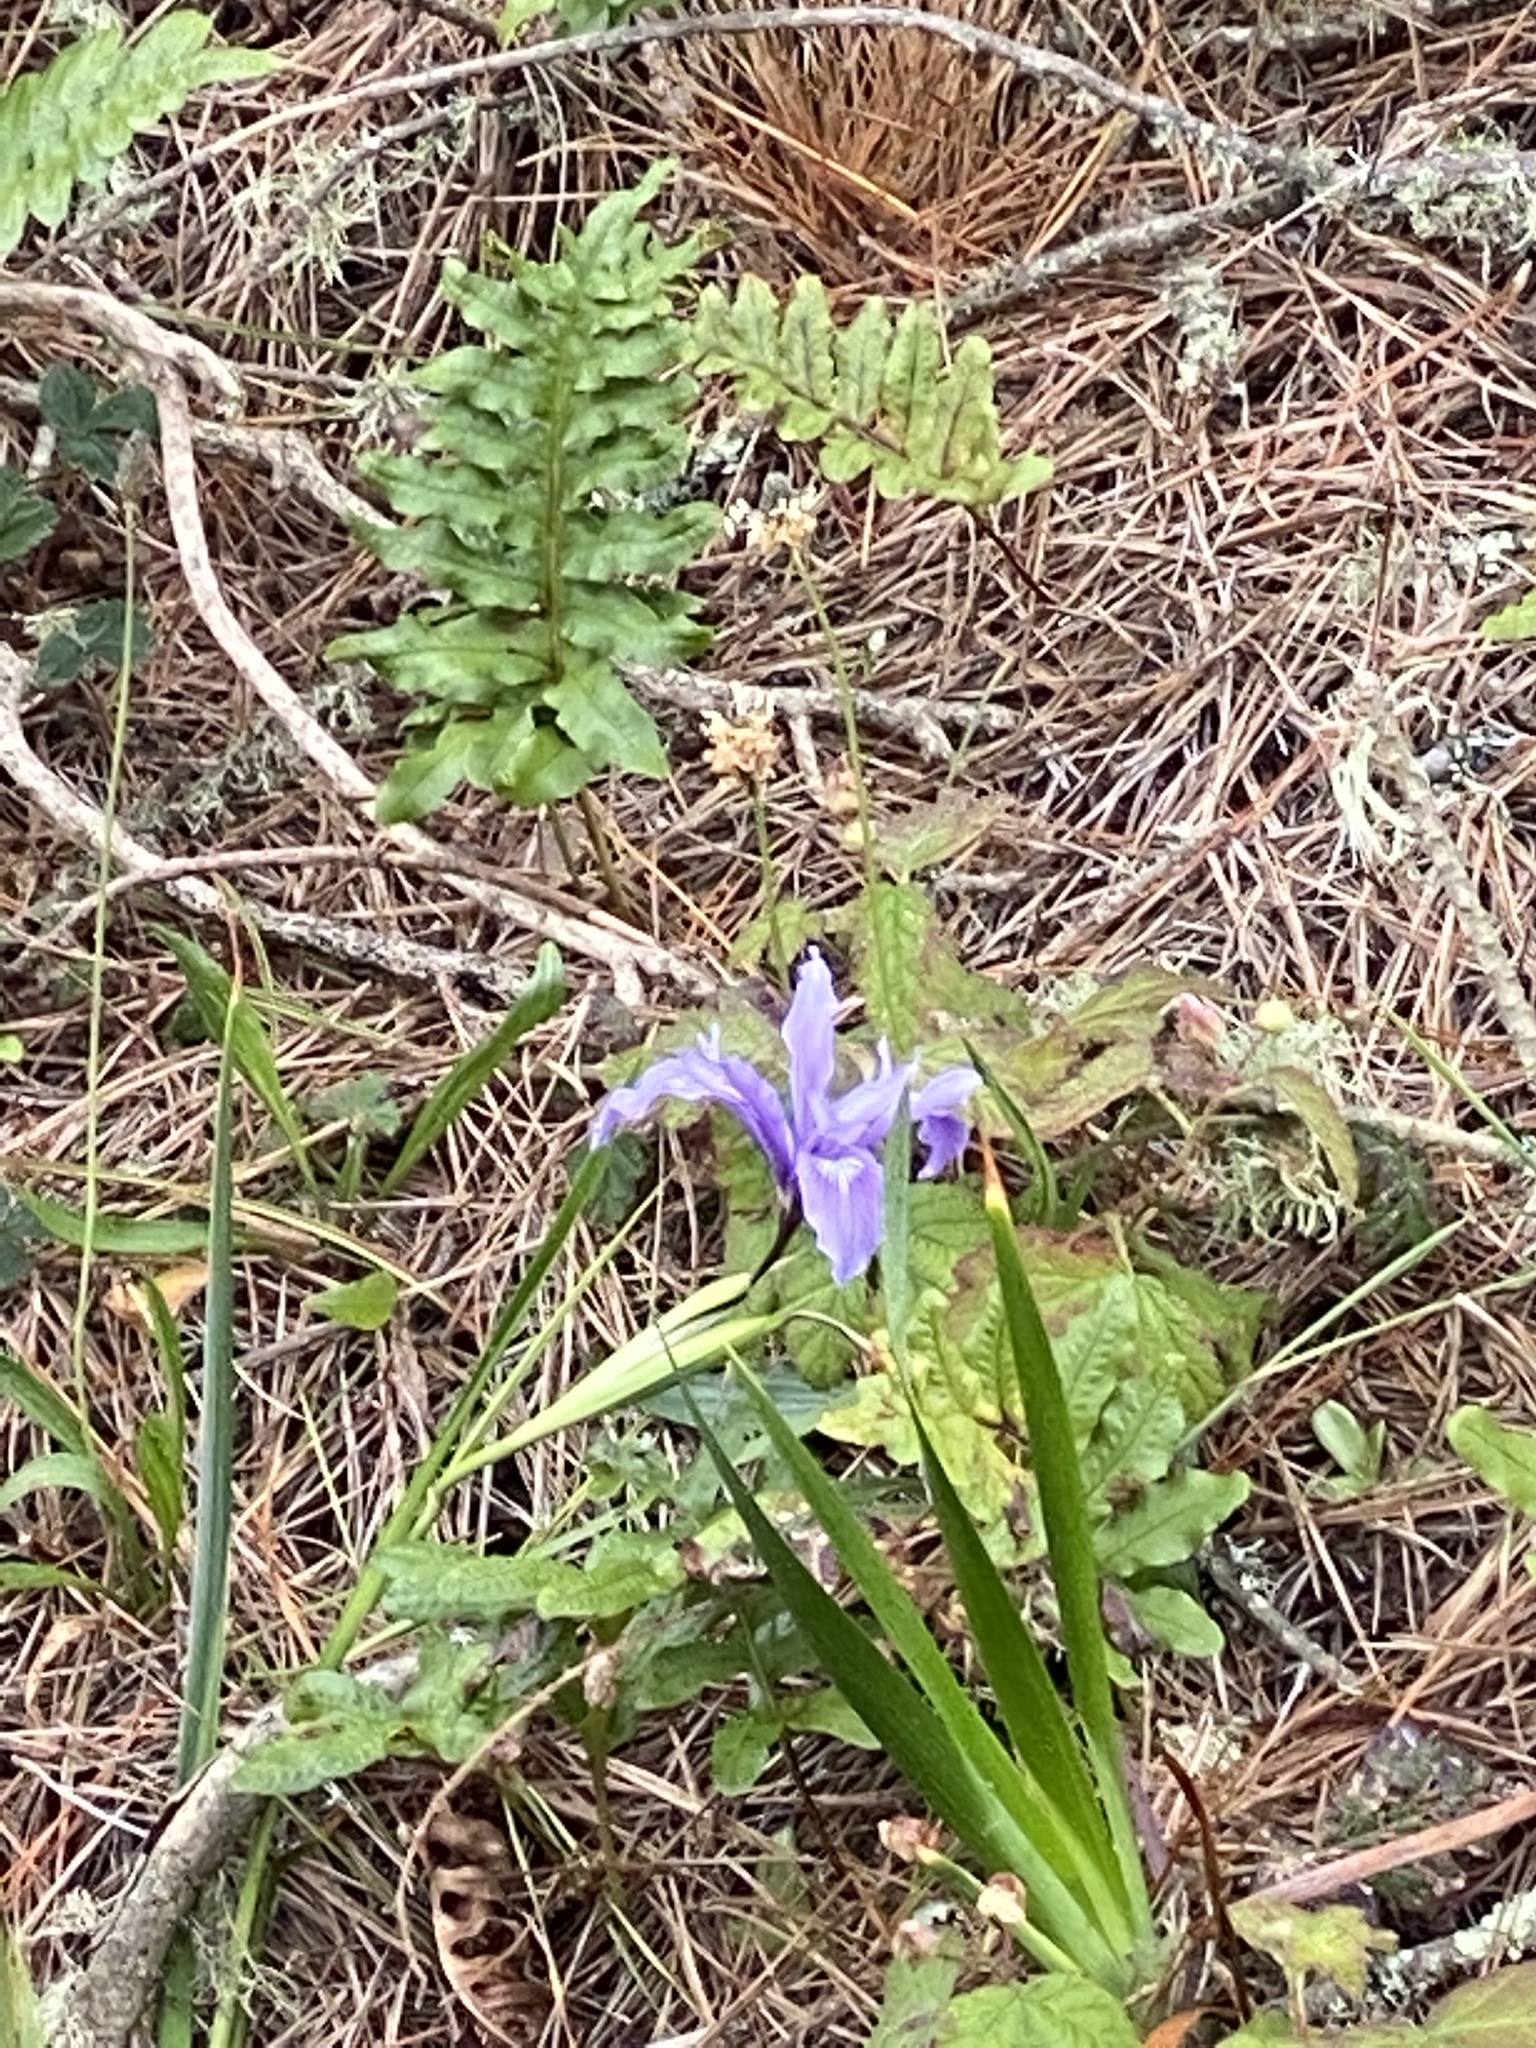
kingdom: Plantae
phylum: Tracheophyta
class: Liliopsida
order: Asparagales
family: Iridaceae
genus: Iris
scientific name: Iris douglasiana
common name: Marin iris
